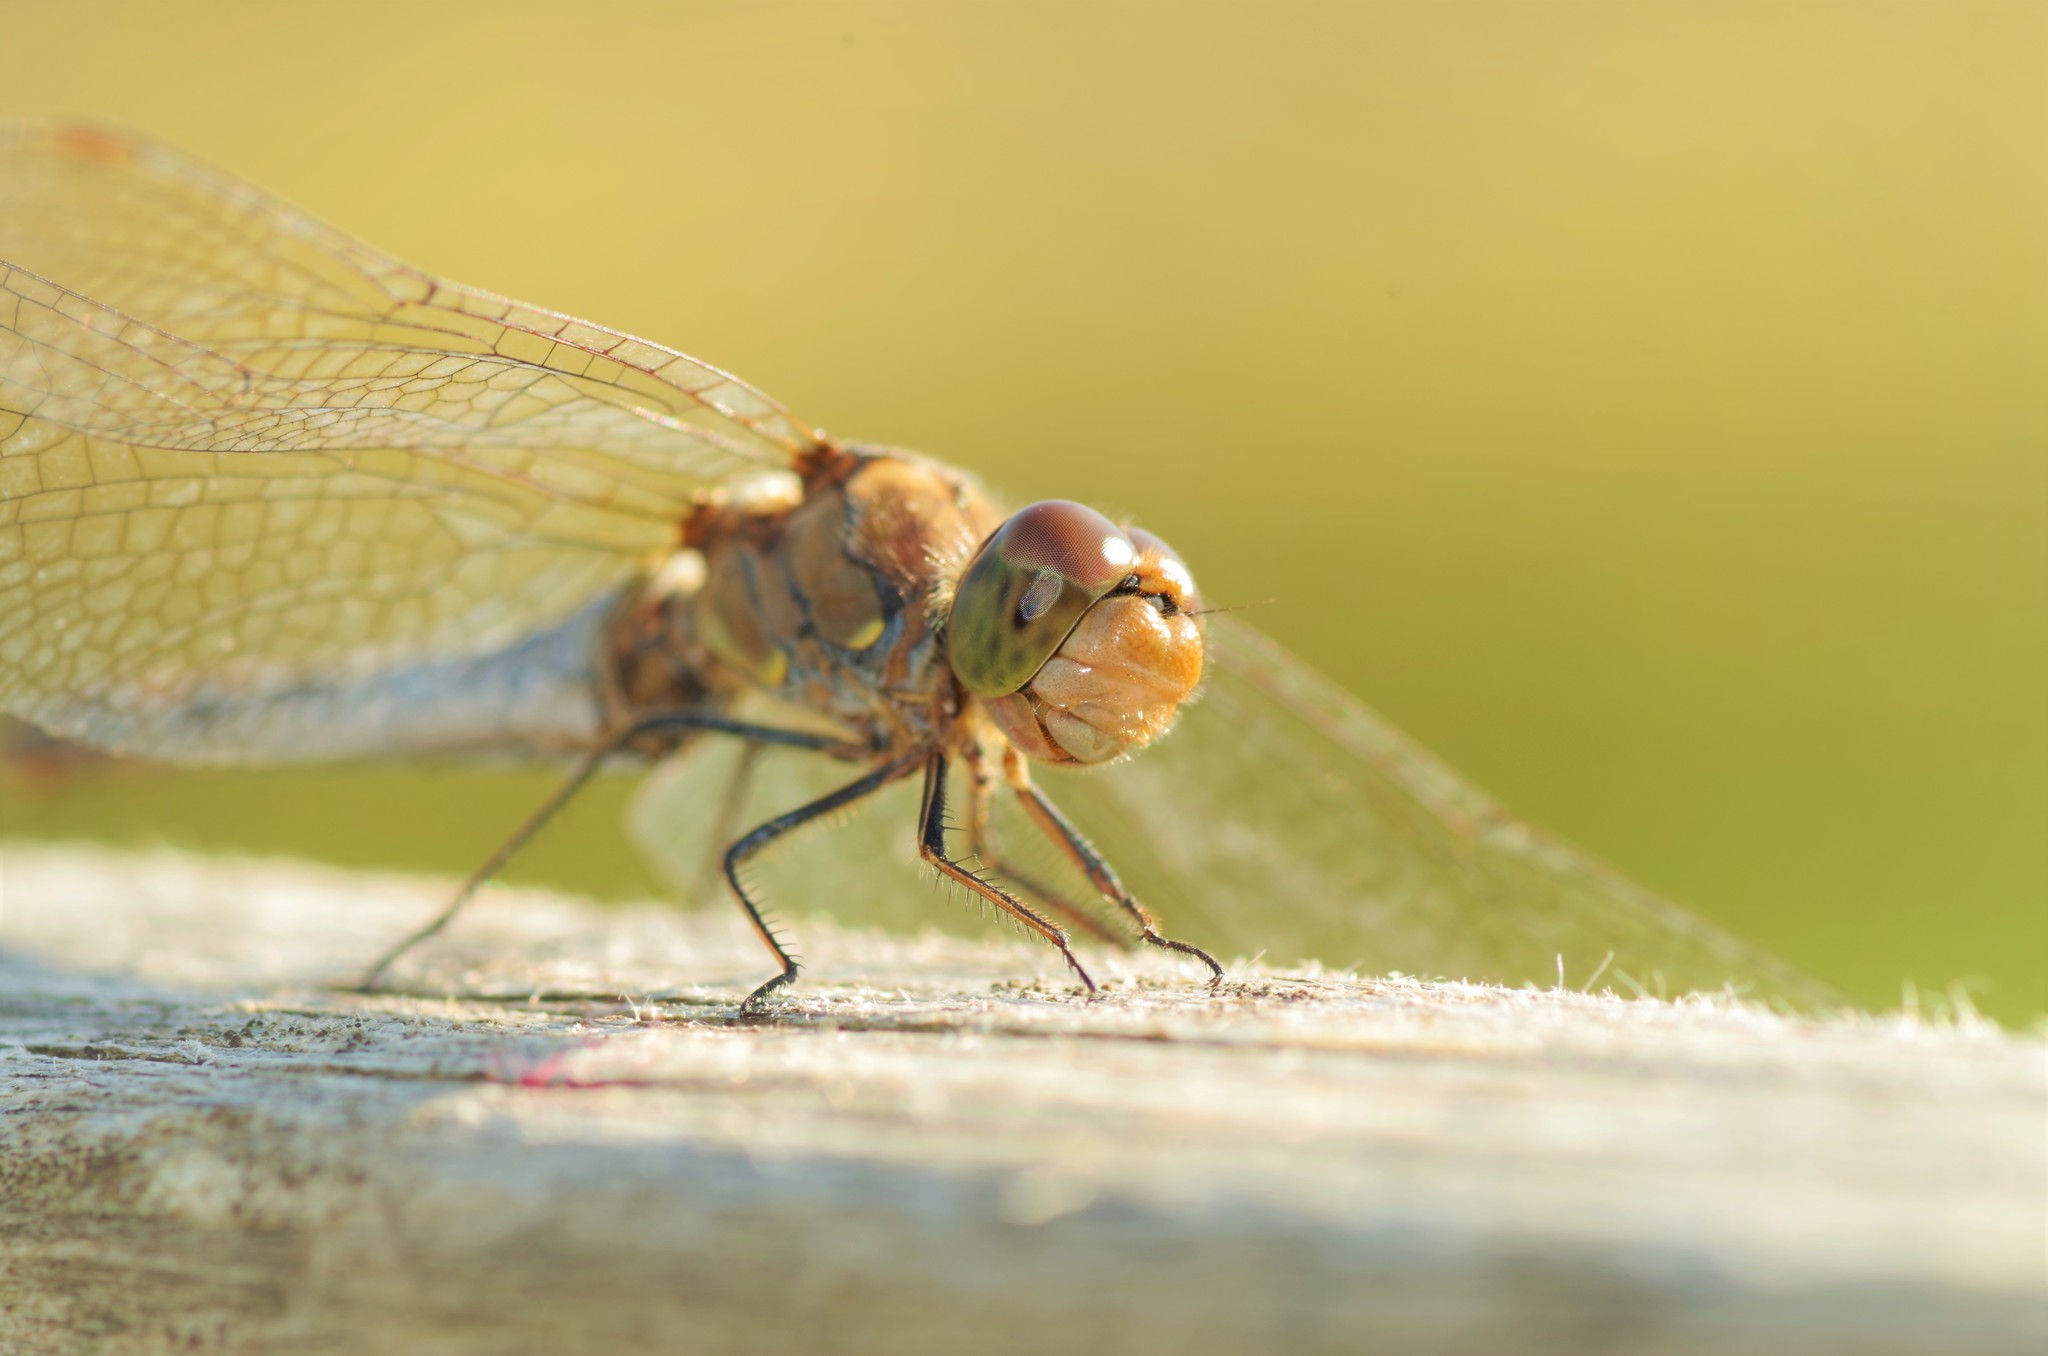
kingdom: Animalia
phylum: Arthropoda
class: Insecta
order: Odonata
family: Libellulidae
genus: Sympetrum
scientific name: Sympetrum striolatum
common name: Common darter
